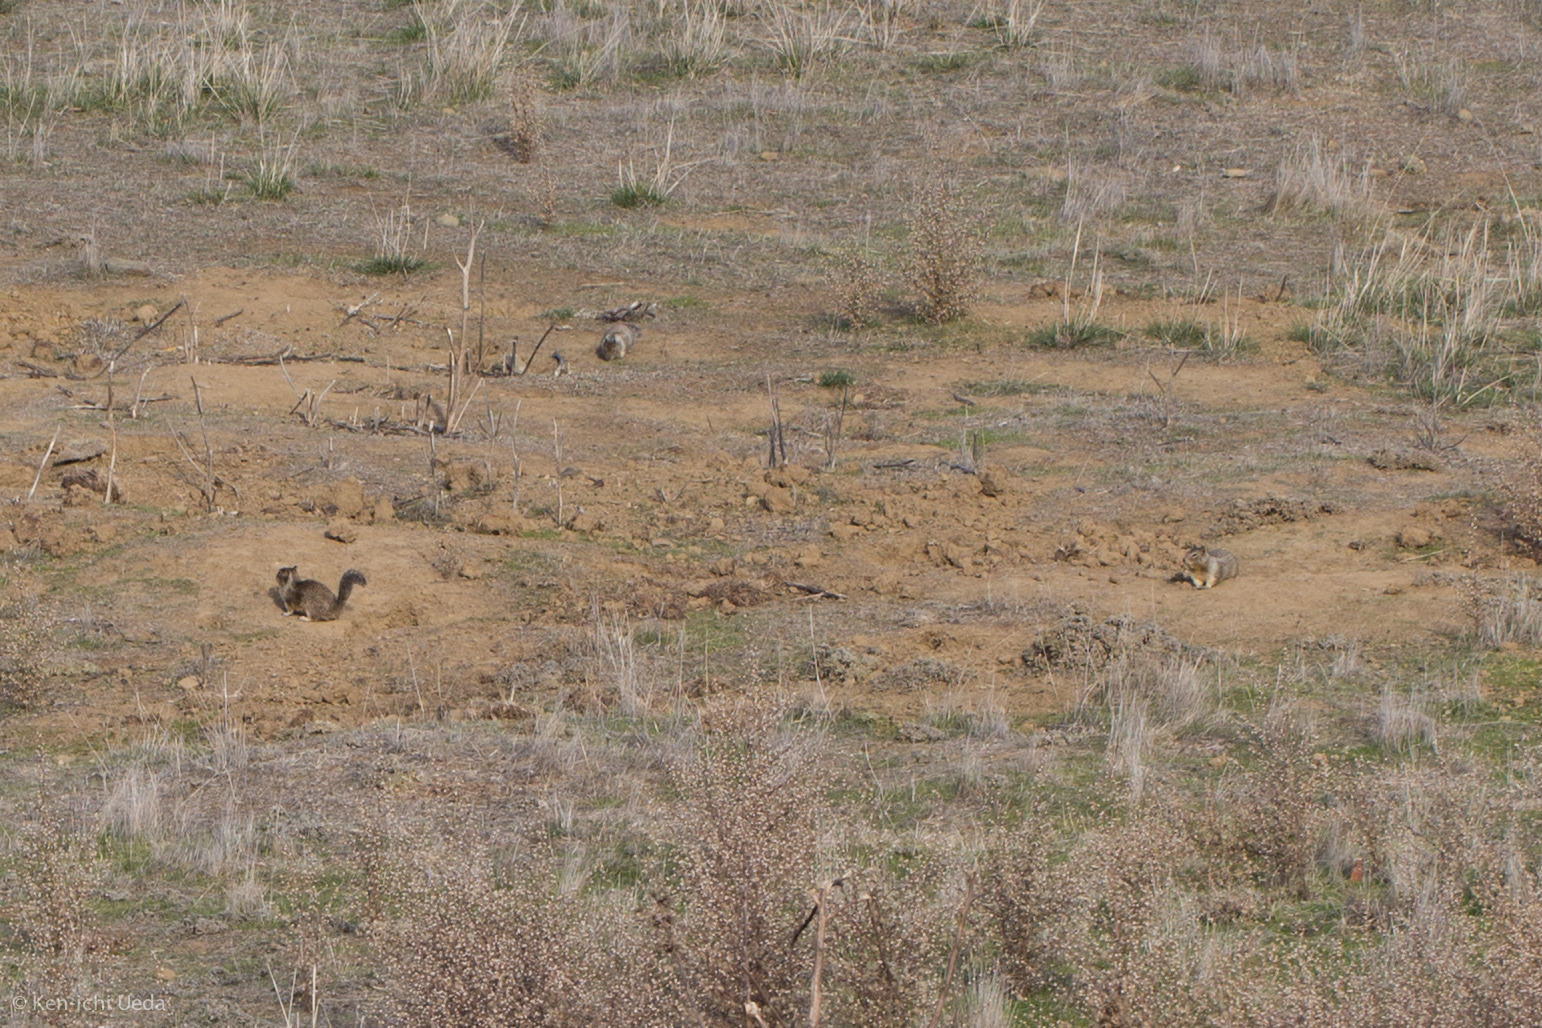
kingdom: Animalia
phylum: Chordata
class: Mammalia
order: Rodentia
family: Sciuridae
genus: Otospermophilus
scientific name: Otospermophilus beecheyi
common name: California ground squirrel
